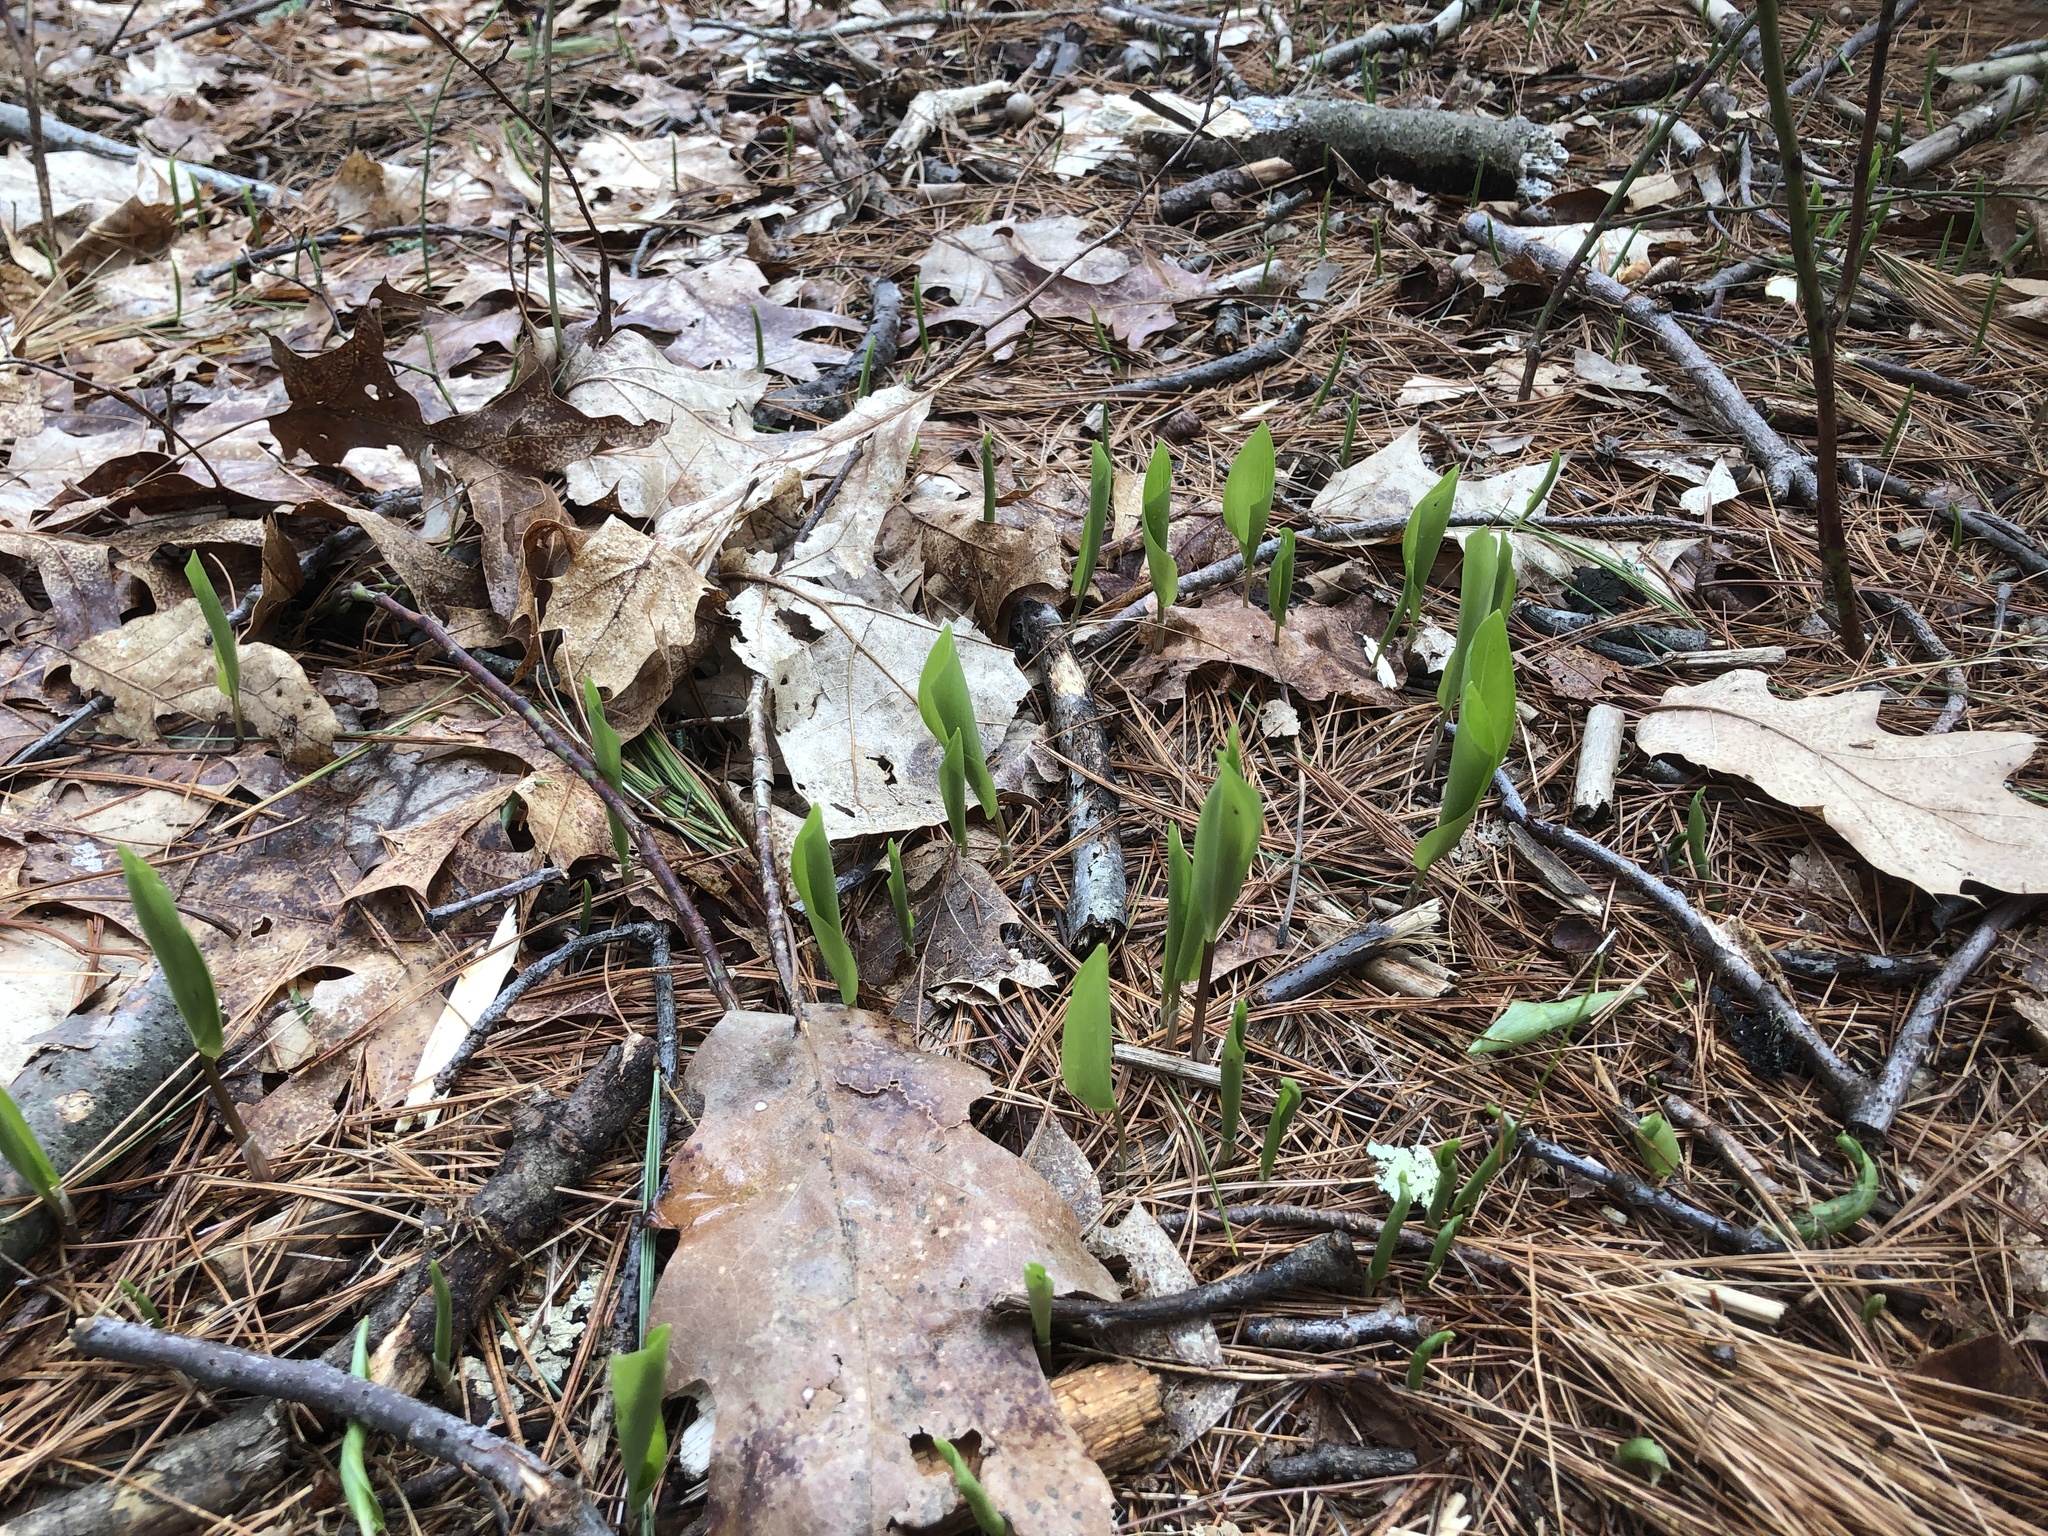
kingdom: Plantae
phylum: Tracheophyta
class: Liliopsida
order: Asparagales
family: Asparagaceae
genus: Maianthemum
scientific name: Maianthemum canadense
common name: False lily-of-the-valley
